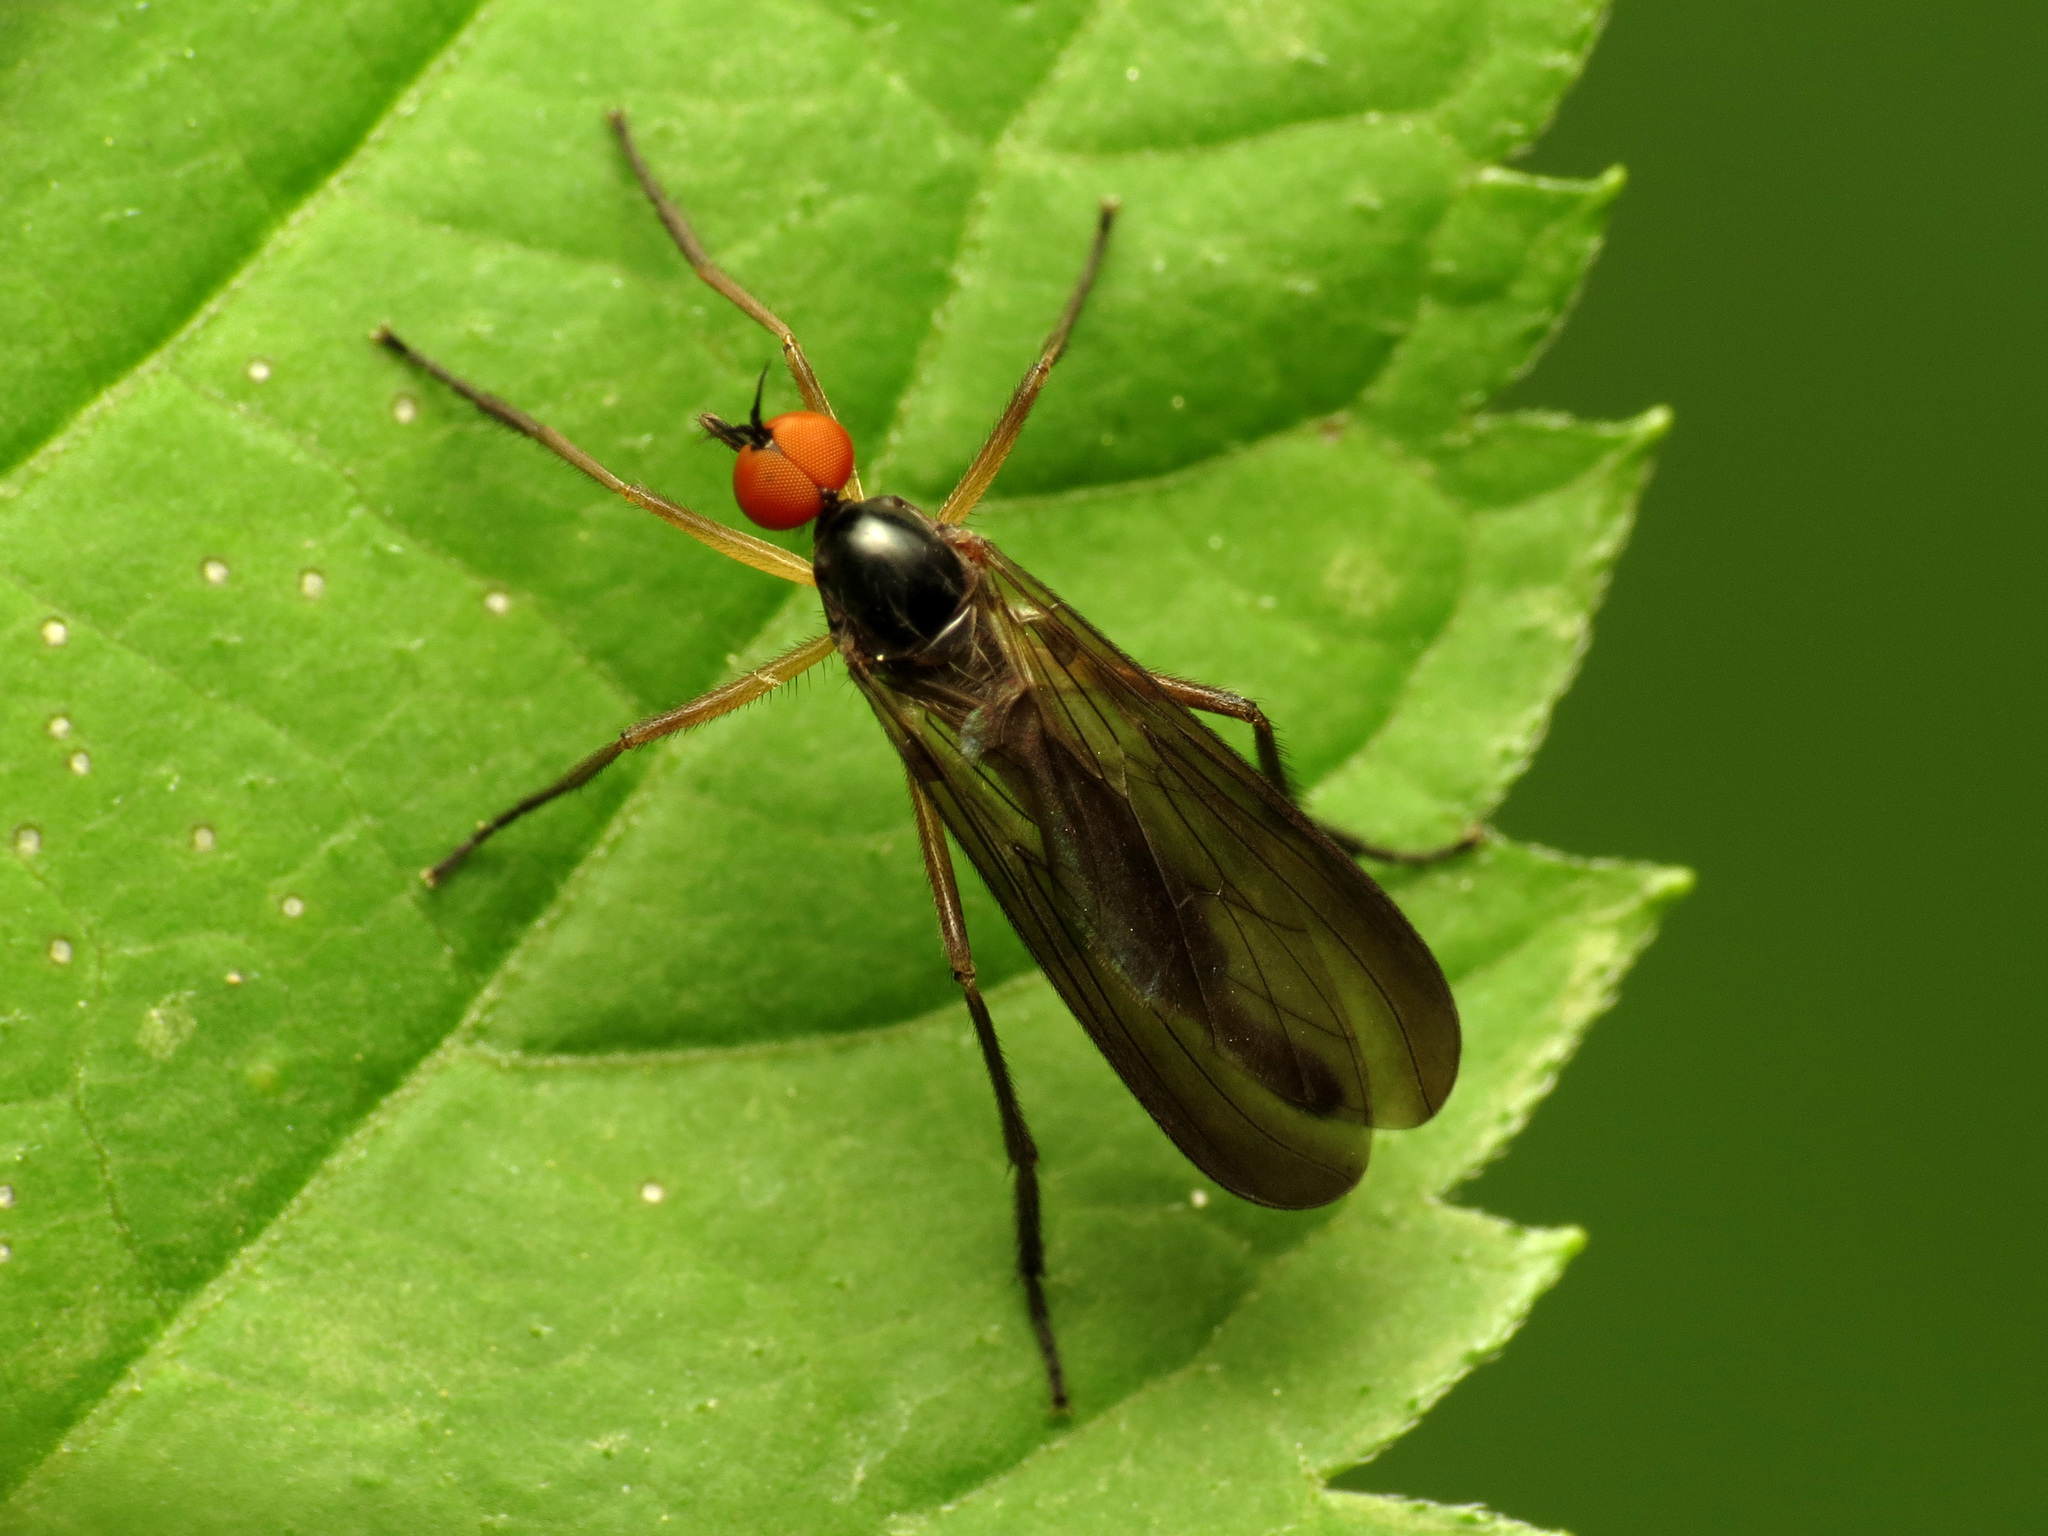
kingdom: Animalia
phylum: Arthropoda
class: Insecta
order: Diptera
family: Empididae
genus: Rhamphomyia
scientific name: Rhamphomyia longicauda
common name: Long-tailed dance fly
